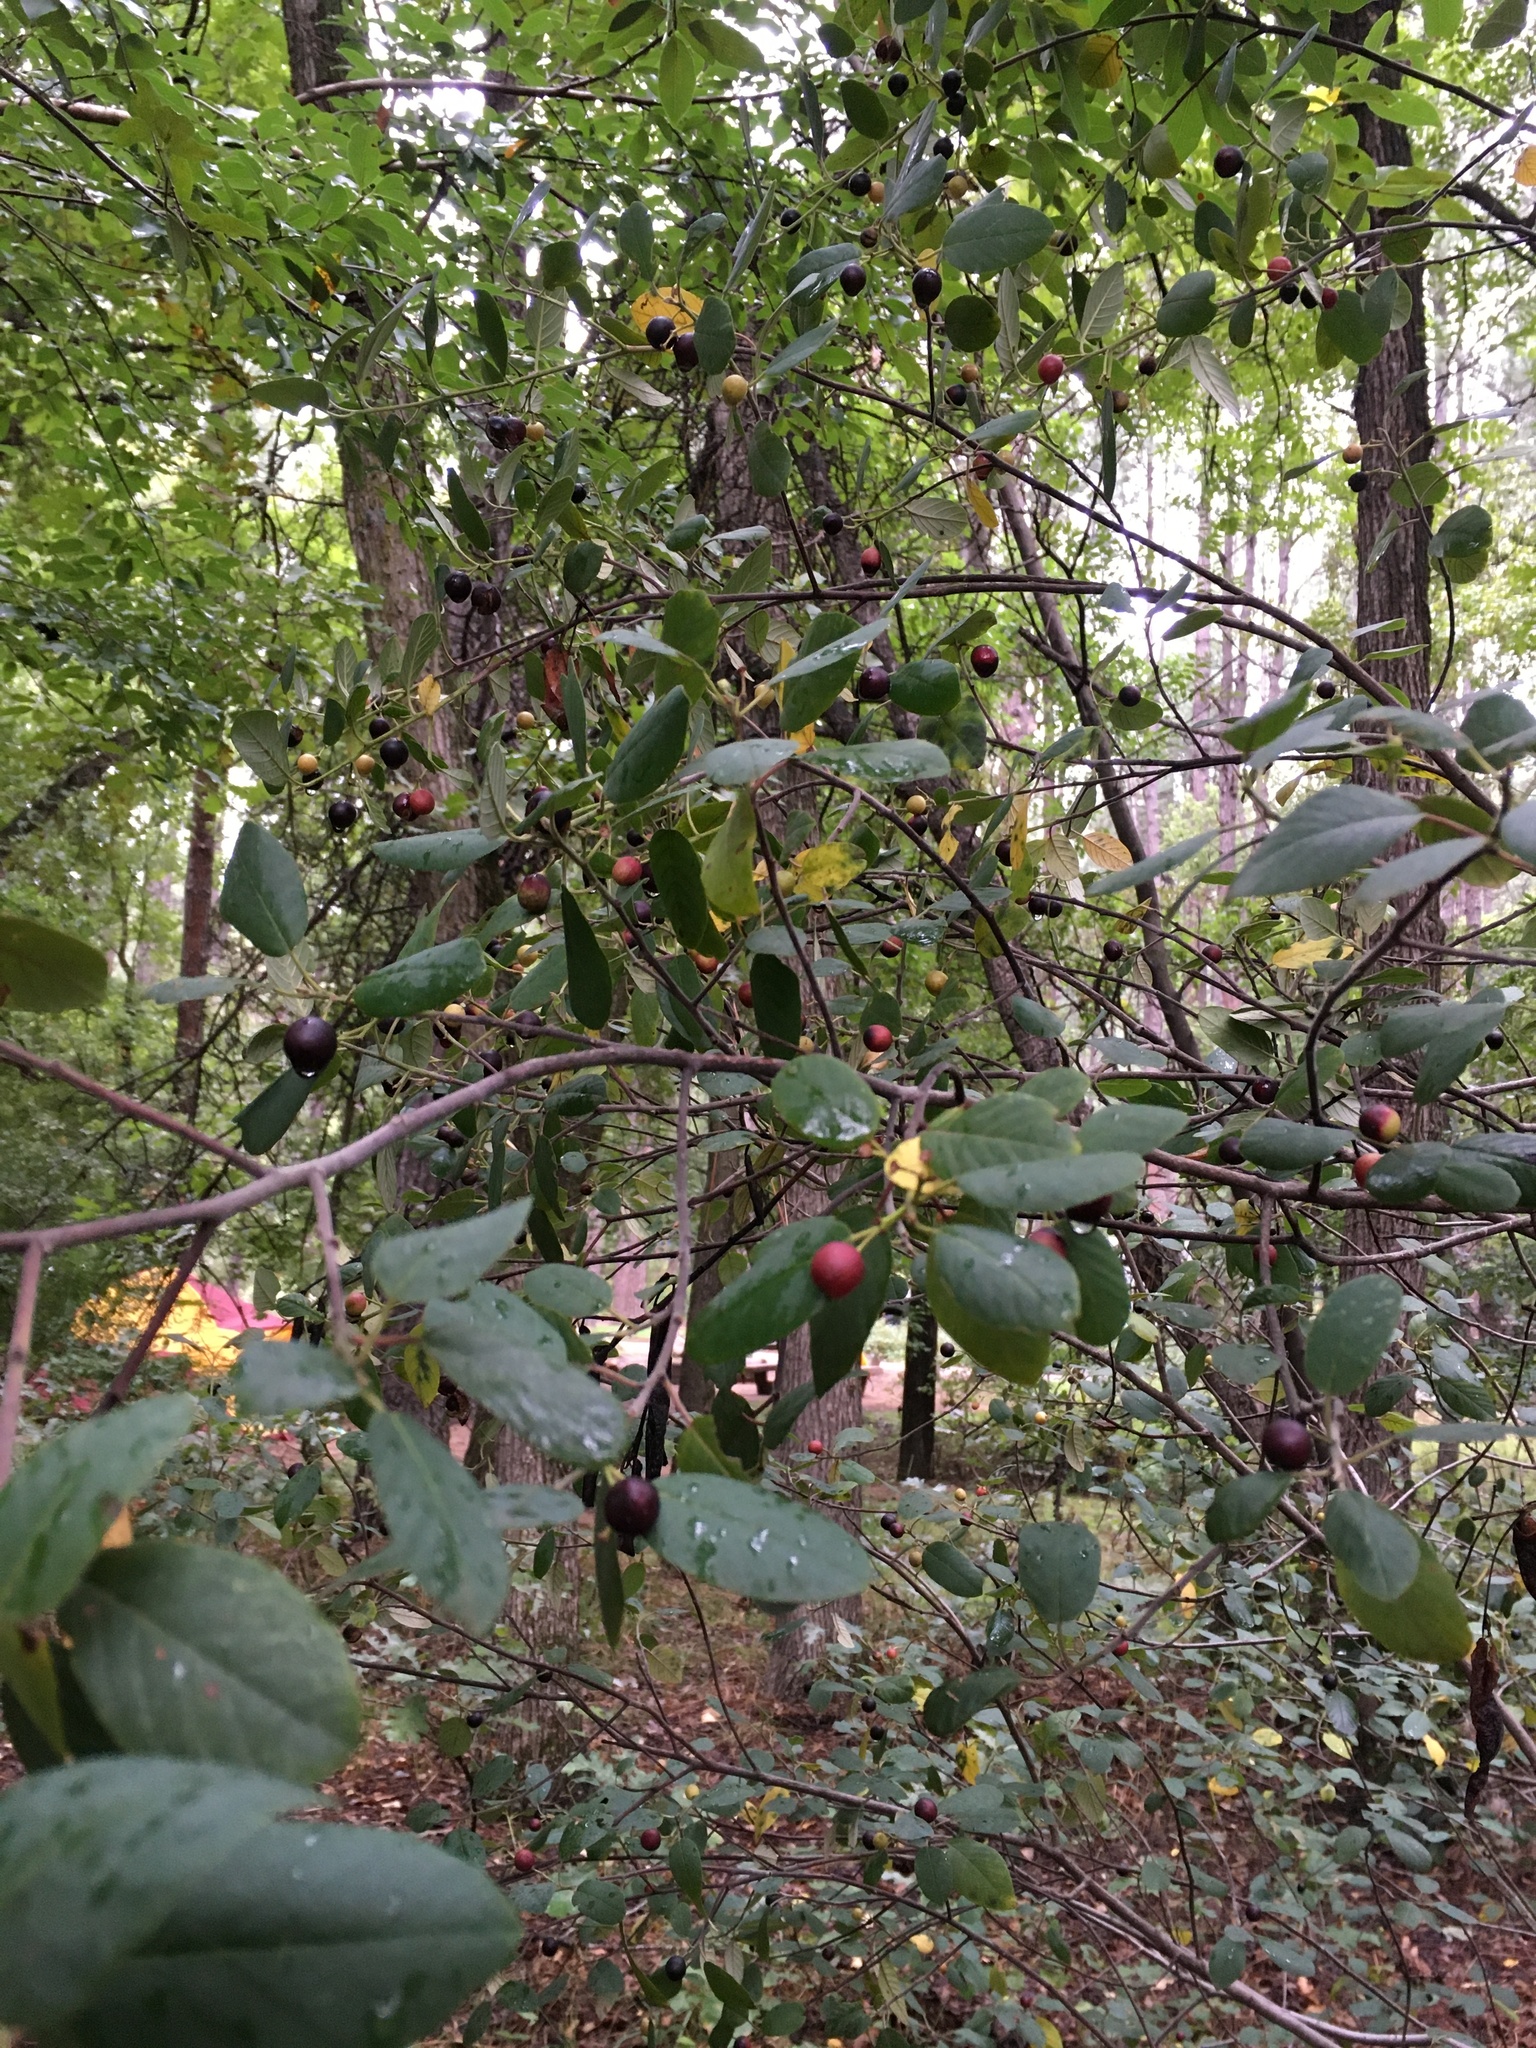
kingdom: Plantae
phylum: Tracheophyta
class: Magnoliopsida
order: Rosales
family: Rhamnaceae
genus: Frangula
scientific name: Frangula californica
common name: California buckthorn
